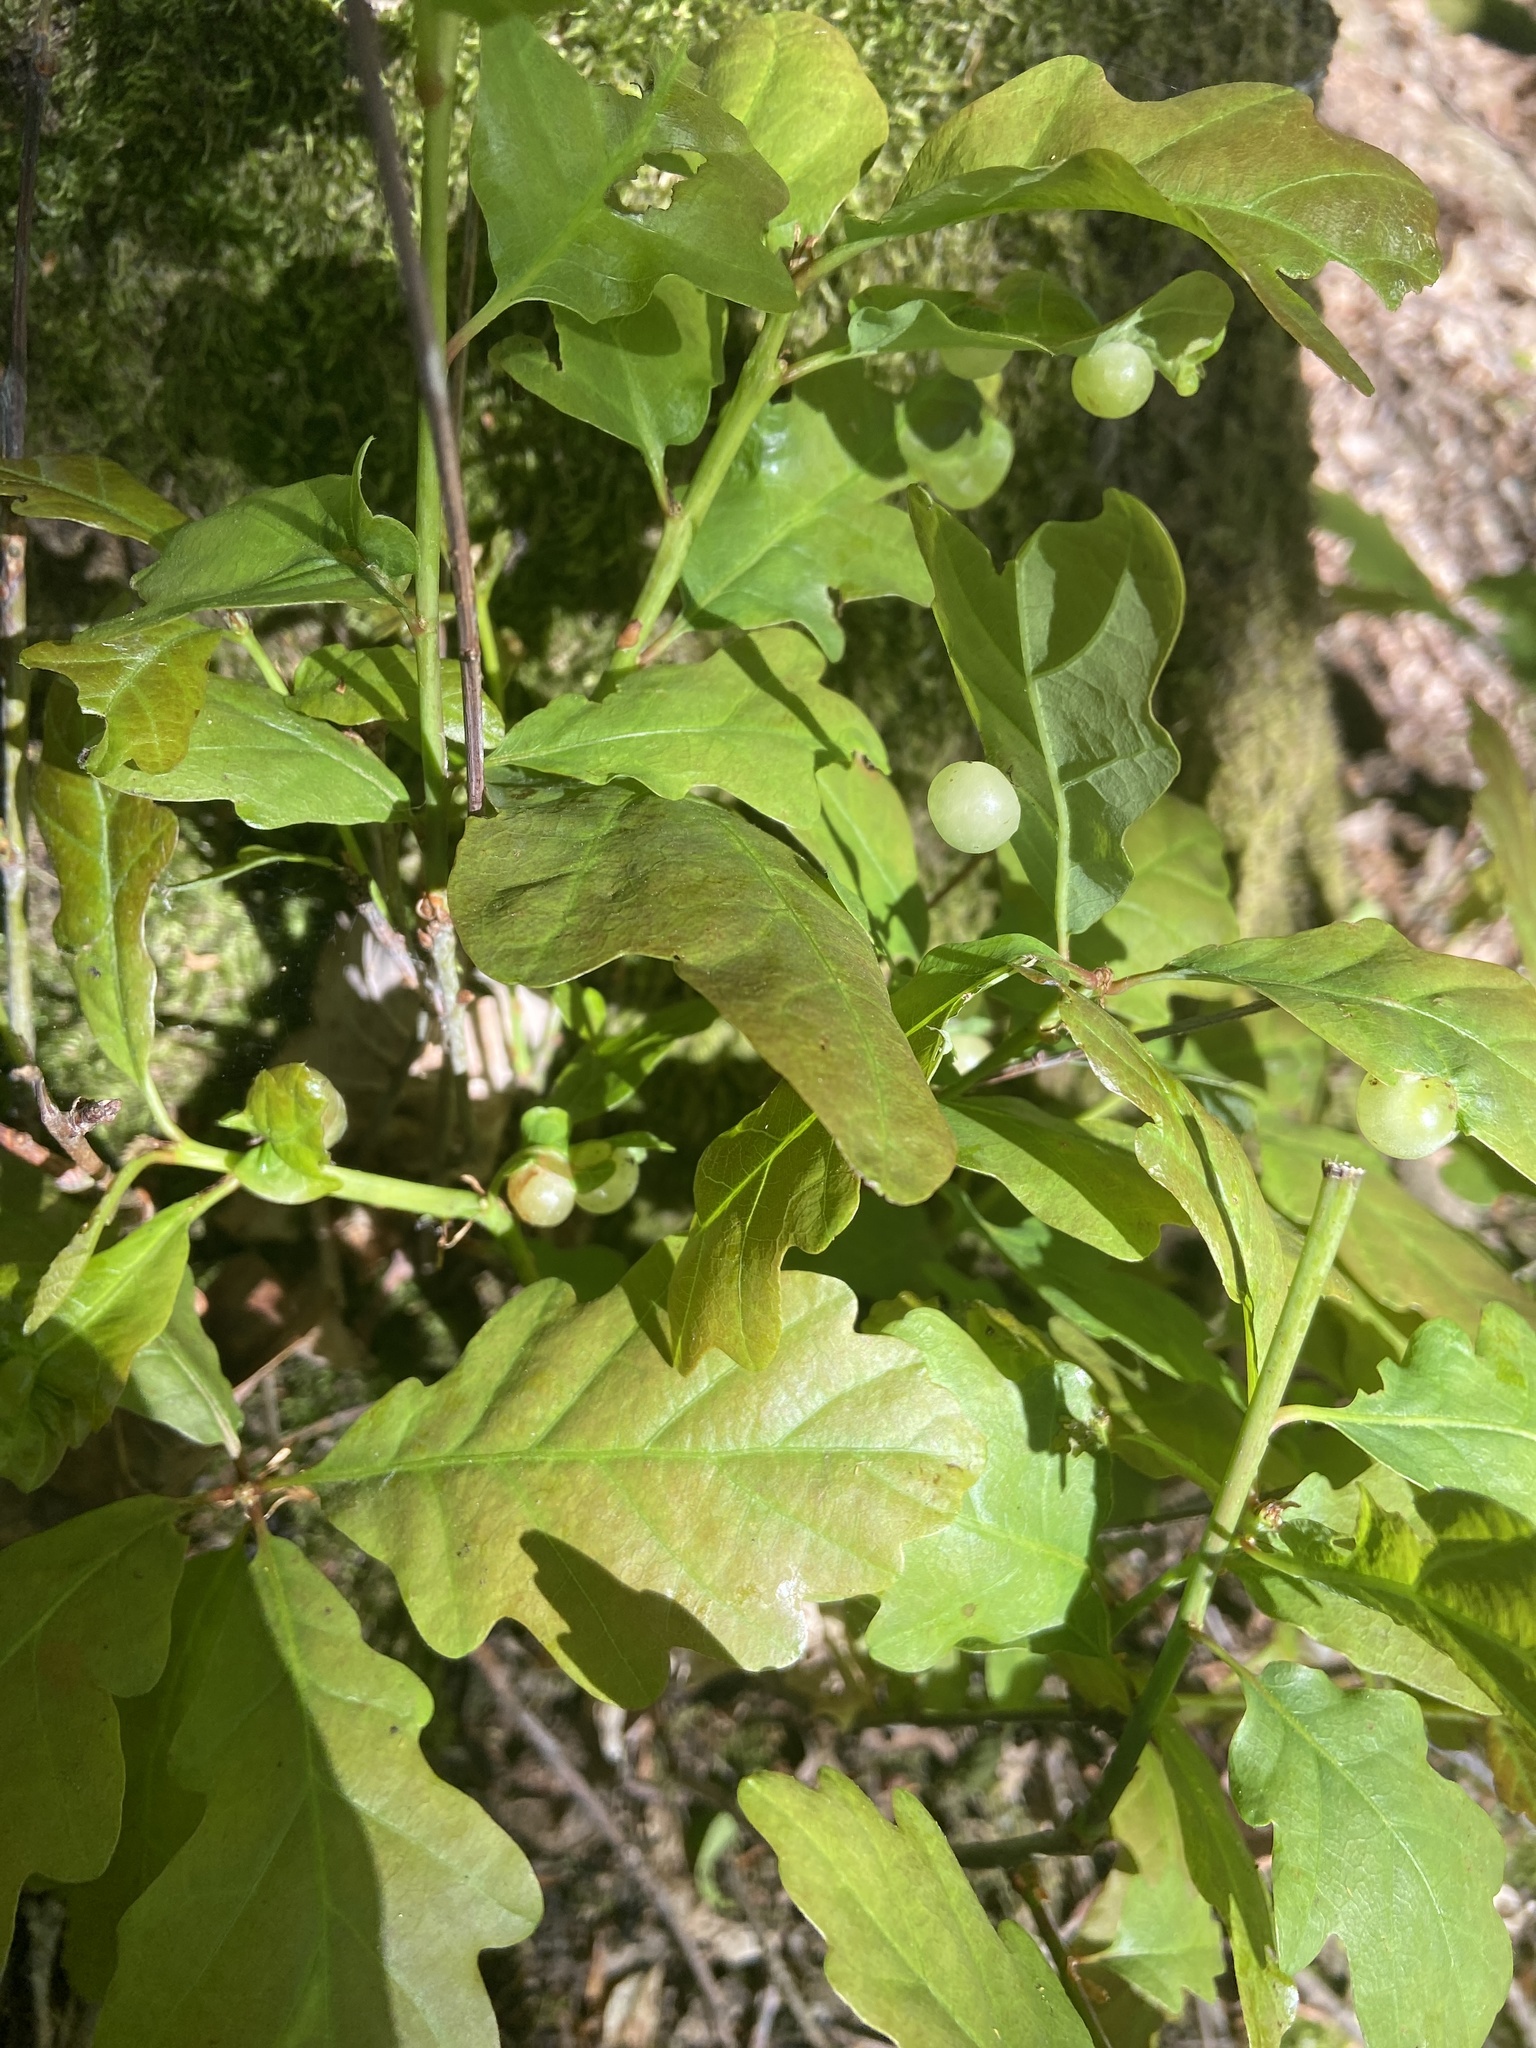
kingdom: Animalia
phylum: Arthropoda
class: Insecta
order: Hymenoptera
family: Cynipidae
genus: Neuroterus
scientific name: Neuroterus quercusbaccarum
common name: Common spangle gall
